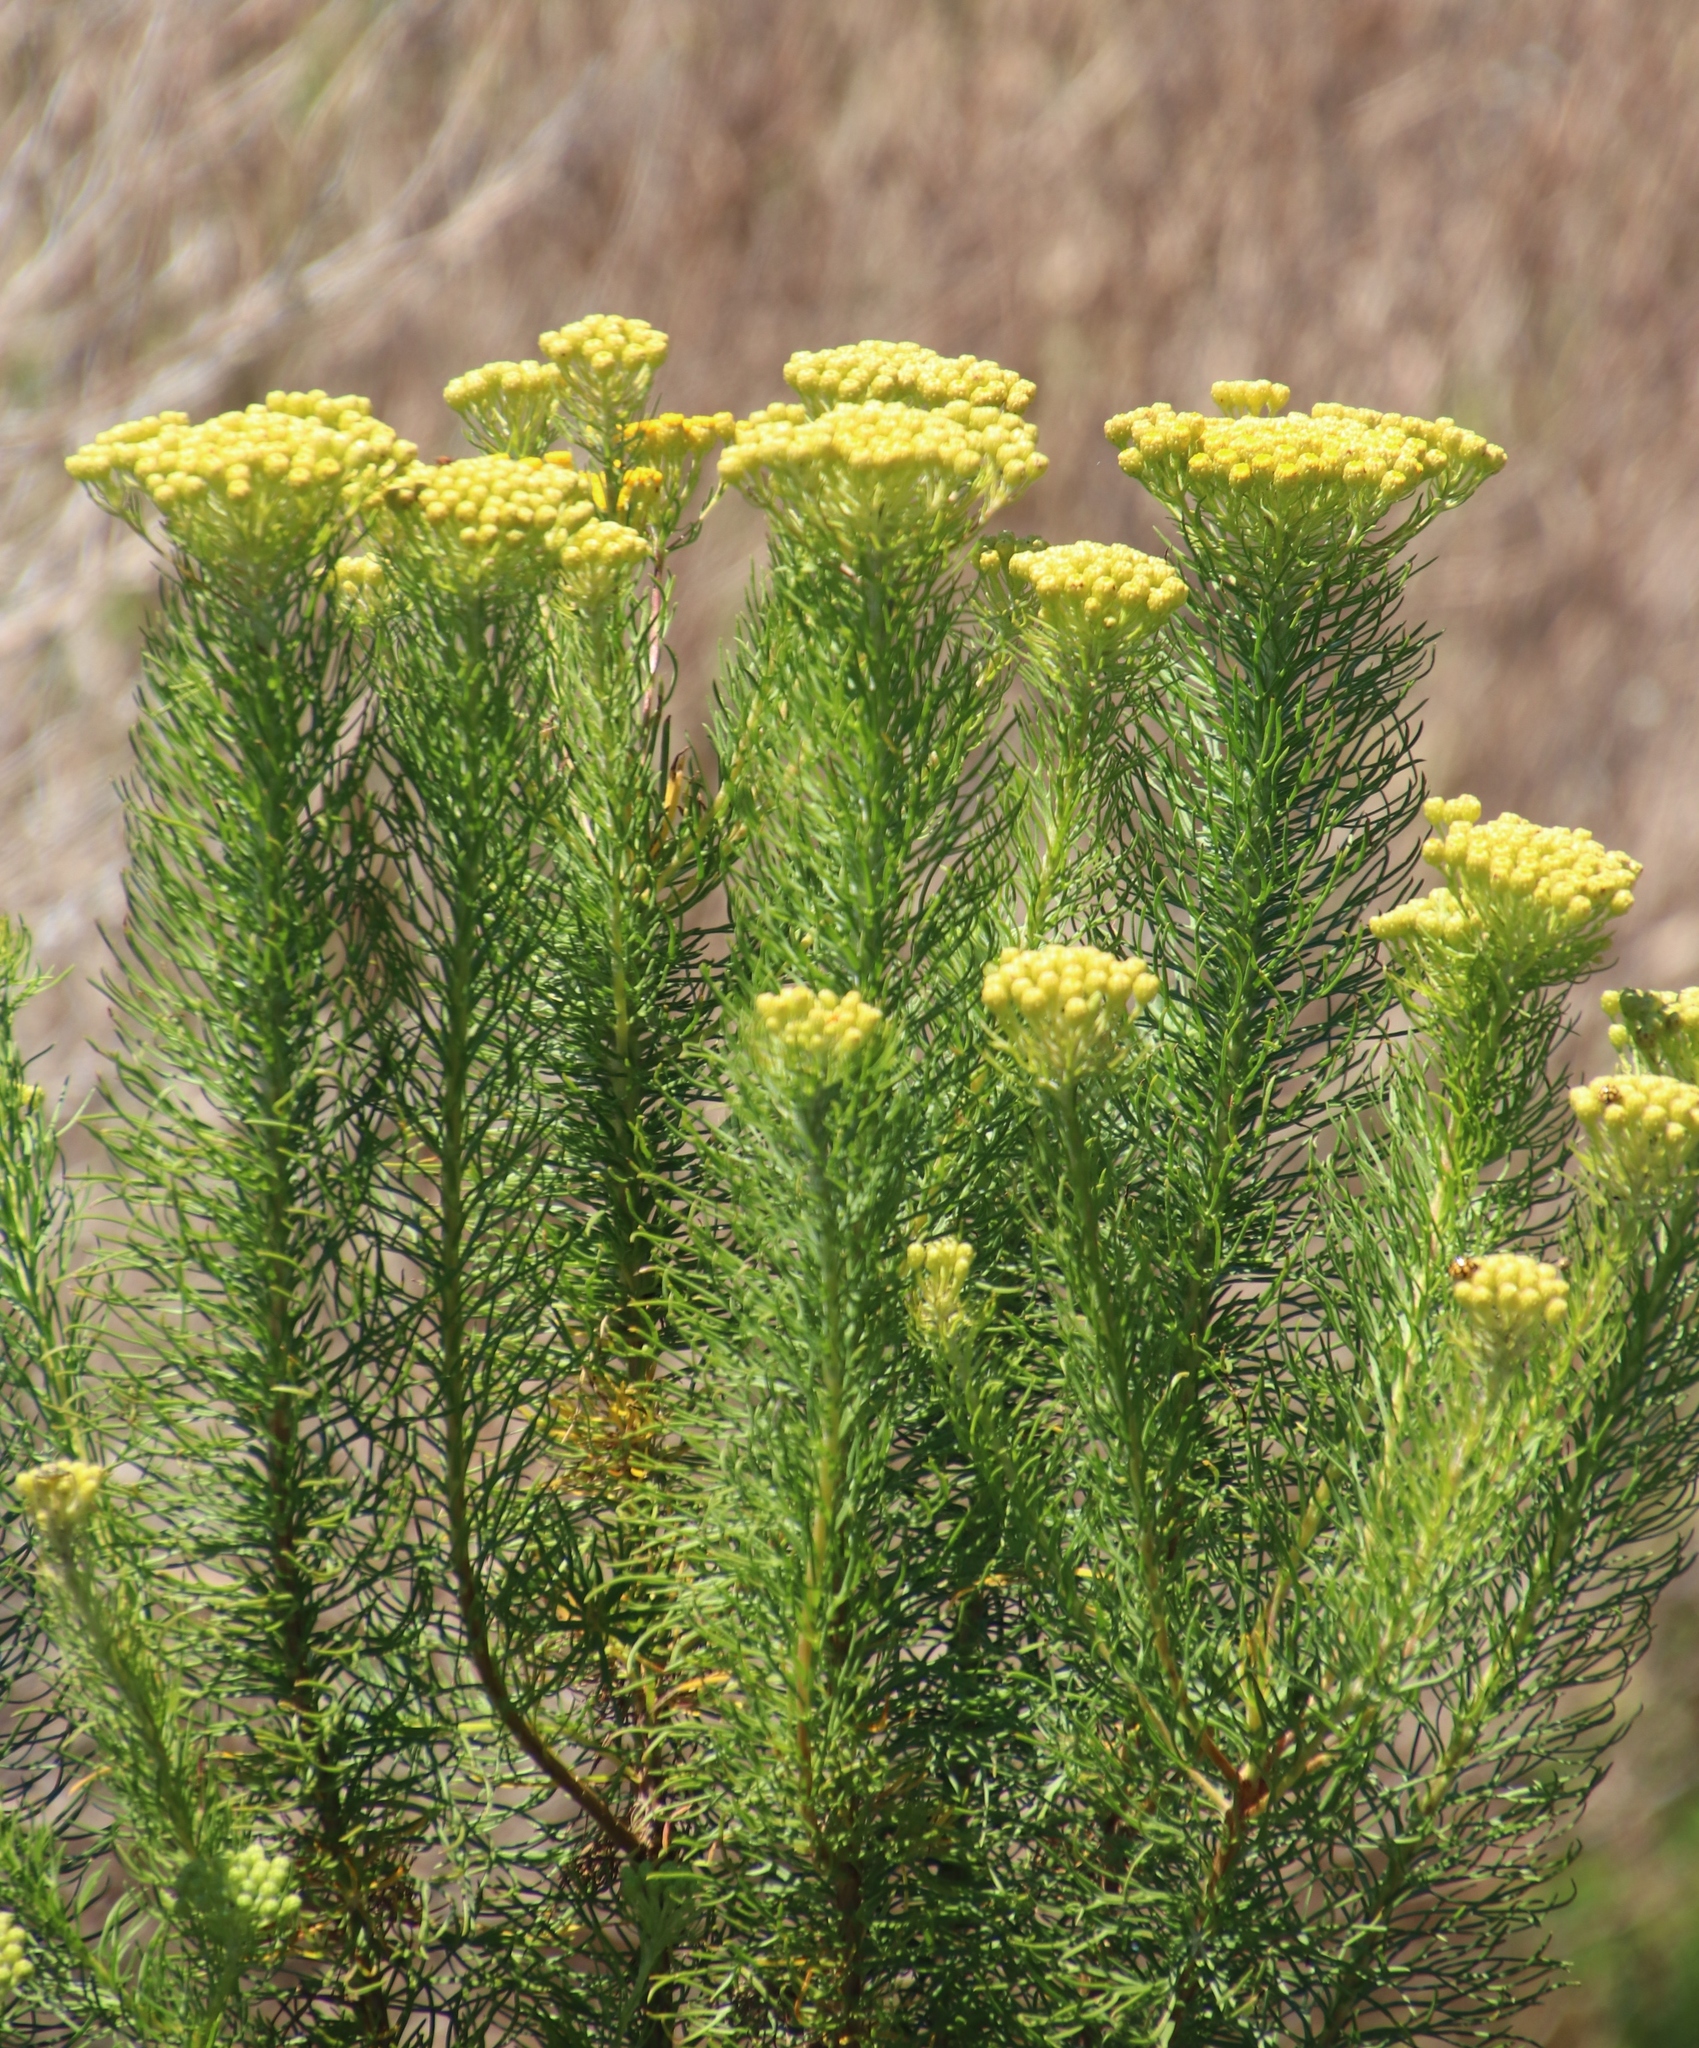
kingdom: Plantae
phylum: Tracheophyta
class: Magnoliopsida
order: Asterales
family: Asteraceae
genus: Athanasia
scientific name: Athanasia crithmifolia
